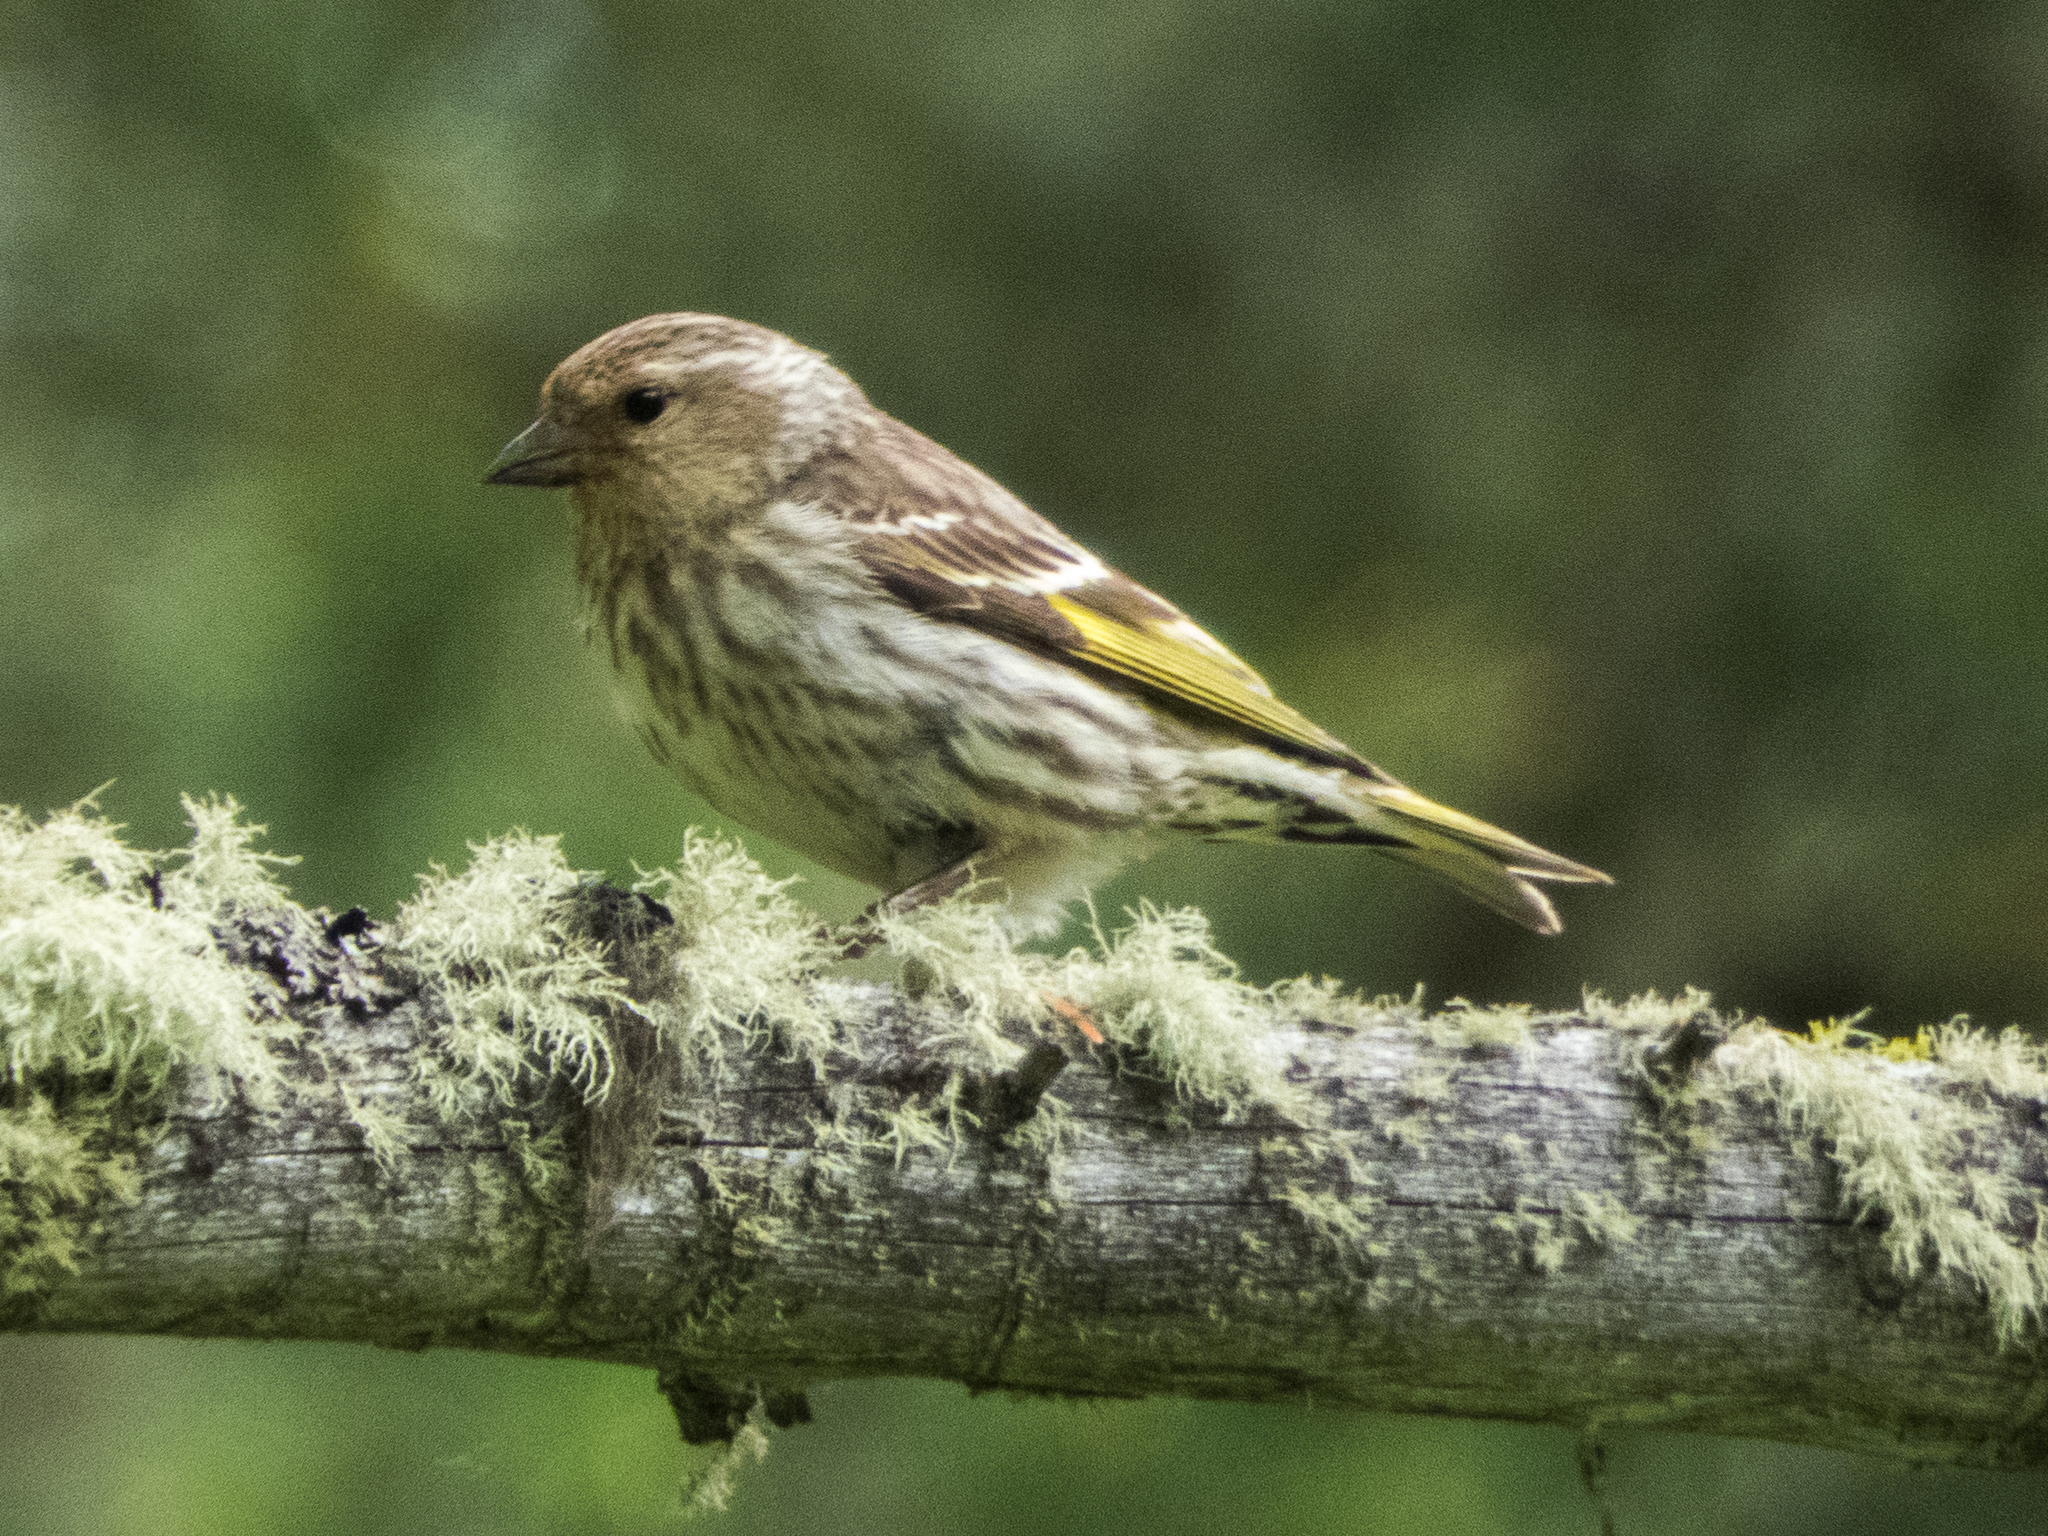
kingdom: Animalia
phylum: Chordata
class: Aves
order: Passeriformes
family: Fringillidae
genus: Spinus
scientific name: Spinus pinus
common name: Pine siskin
